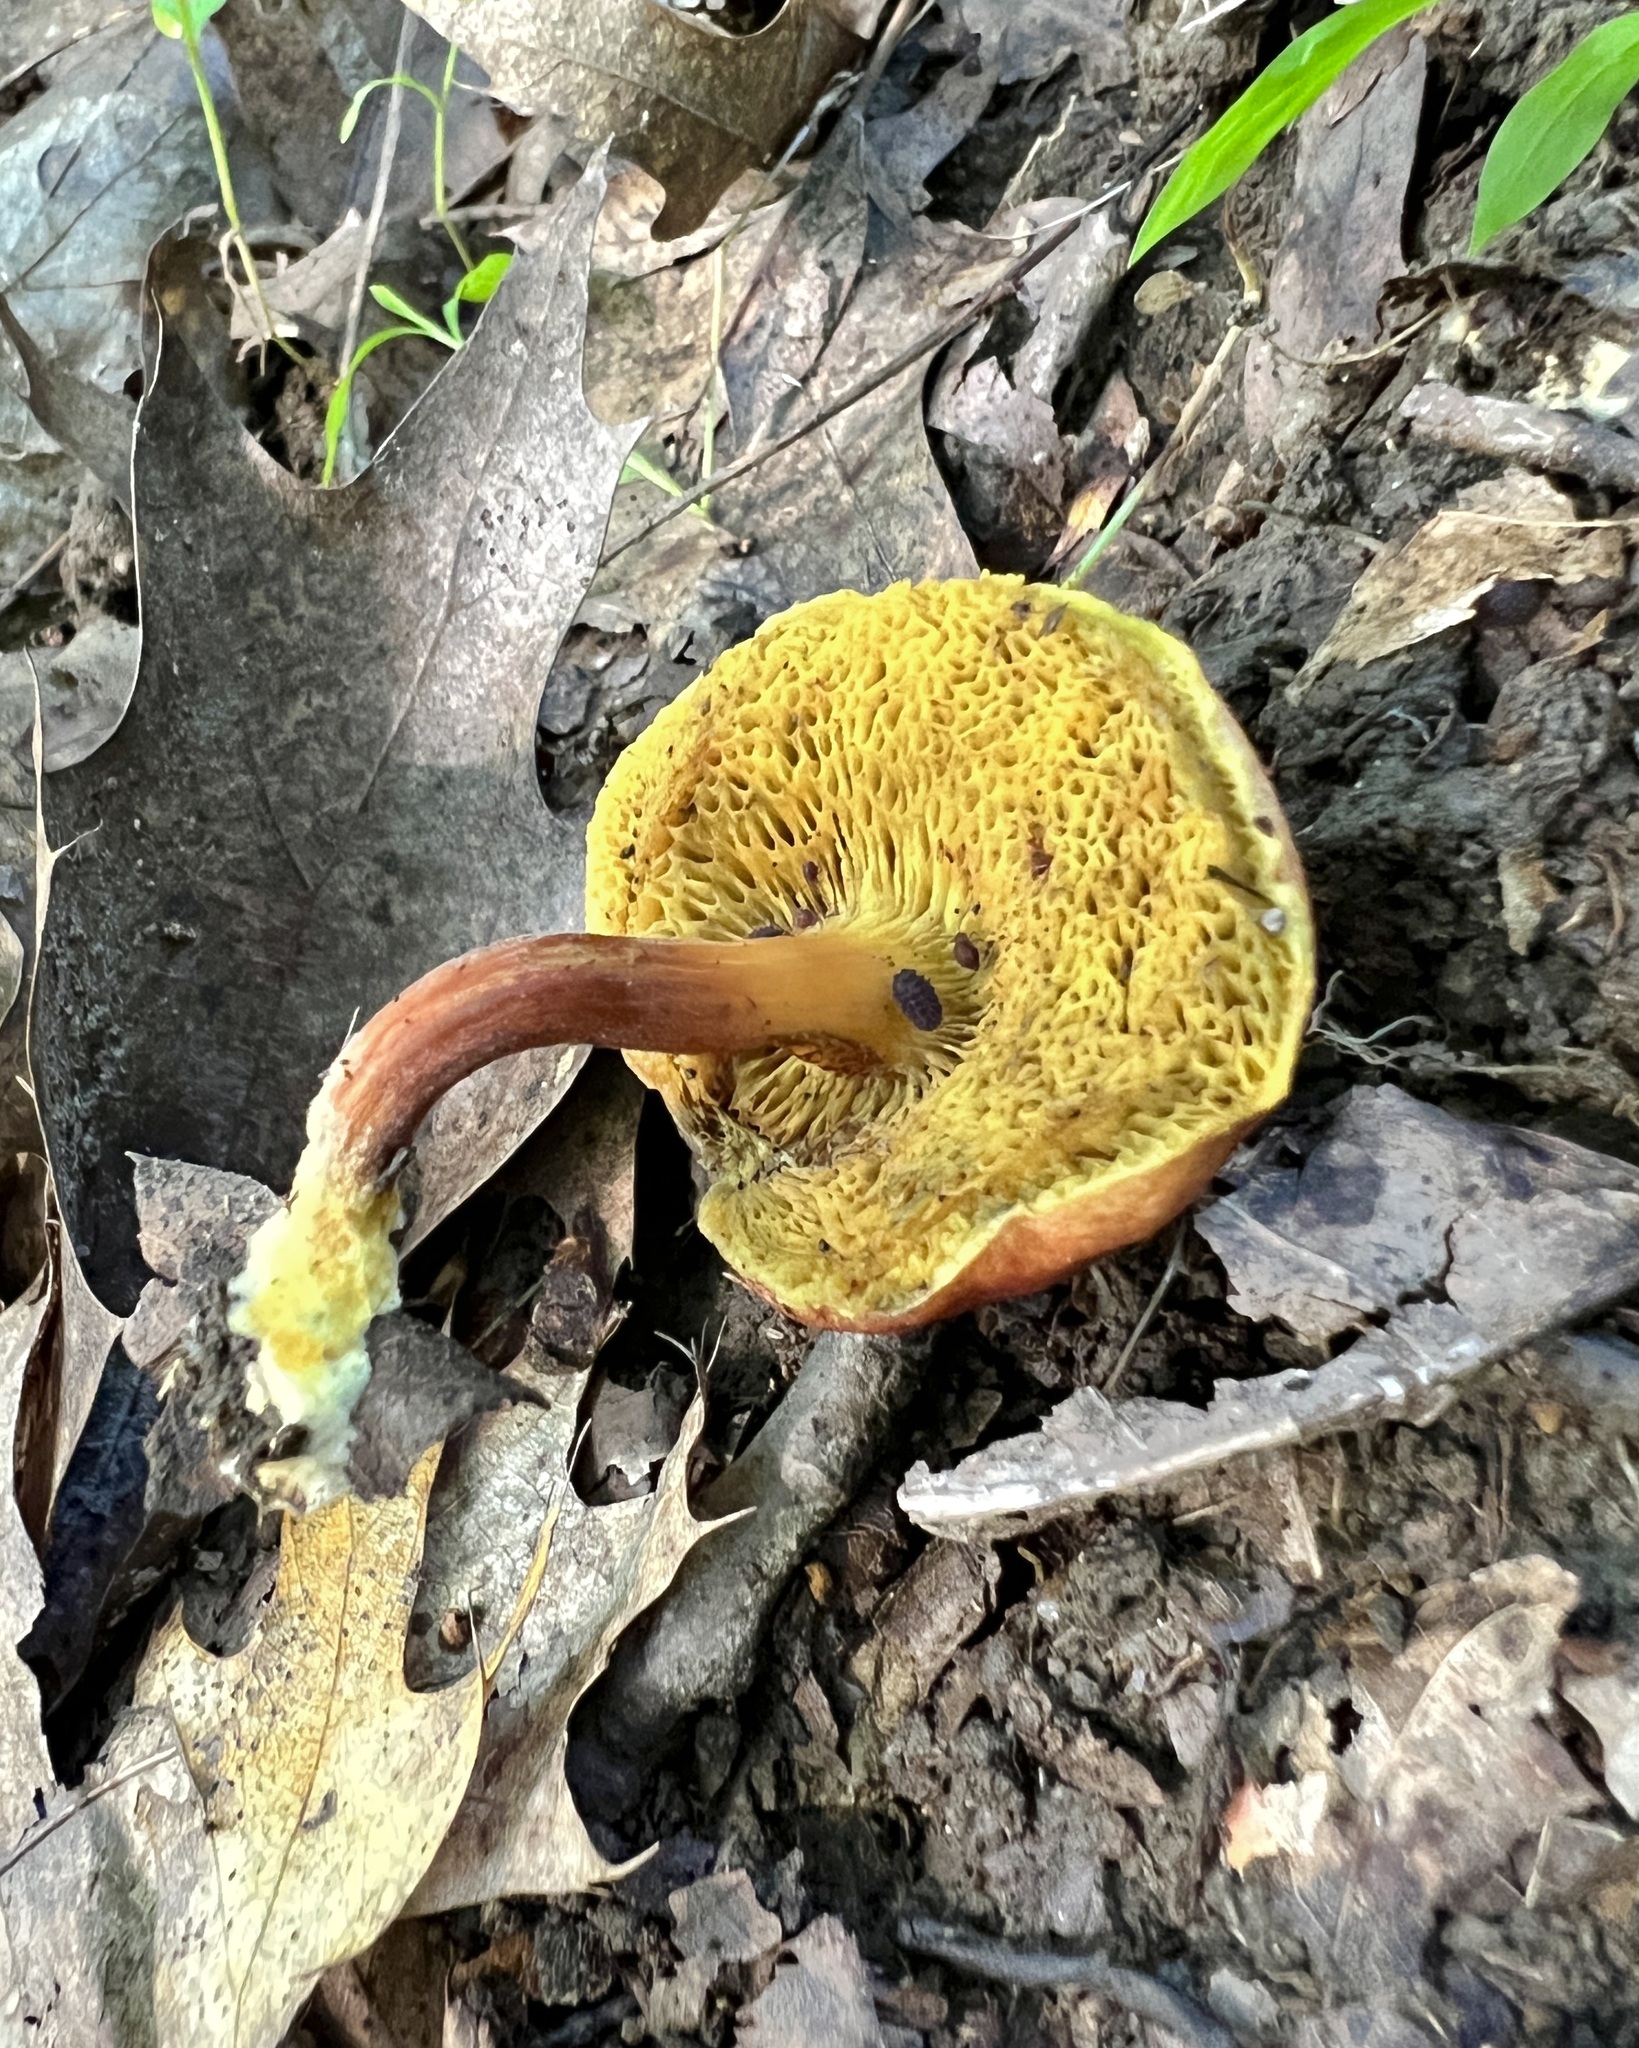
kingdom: Fungi
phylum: Basidiomycota
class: Agaricomycetes
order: Boletales
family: Boletaceae
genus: Hortiboletus
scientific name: Hortiboletus campestris
